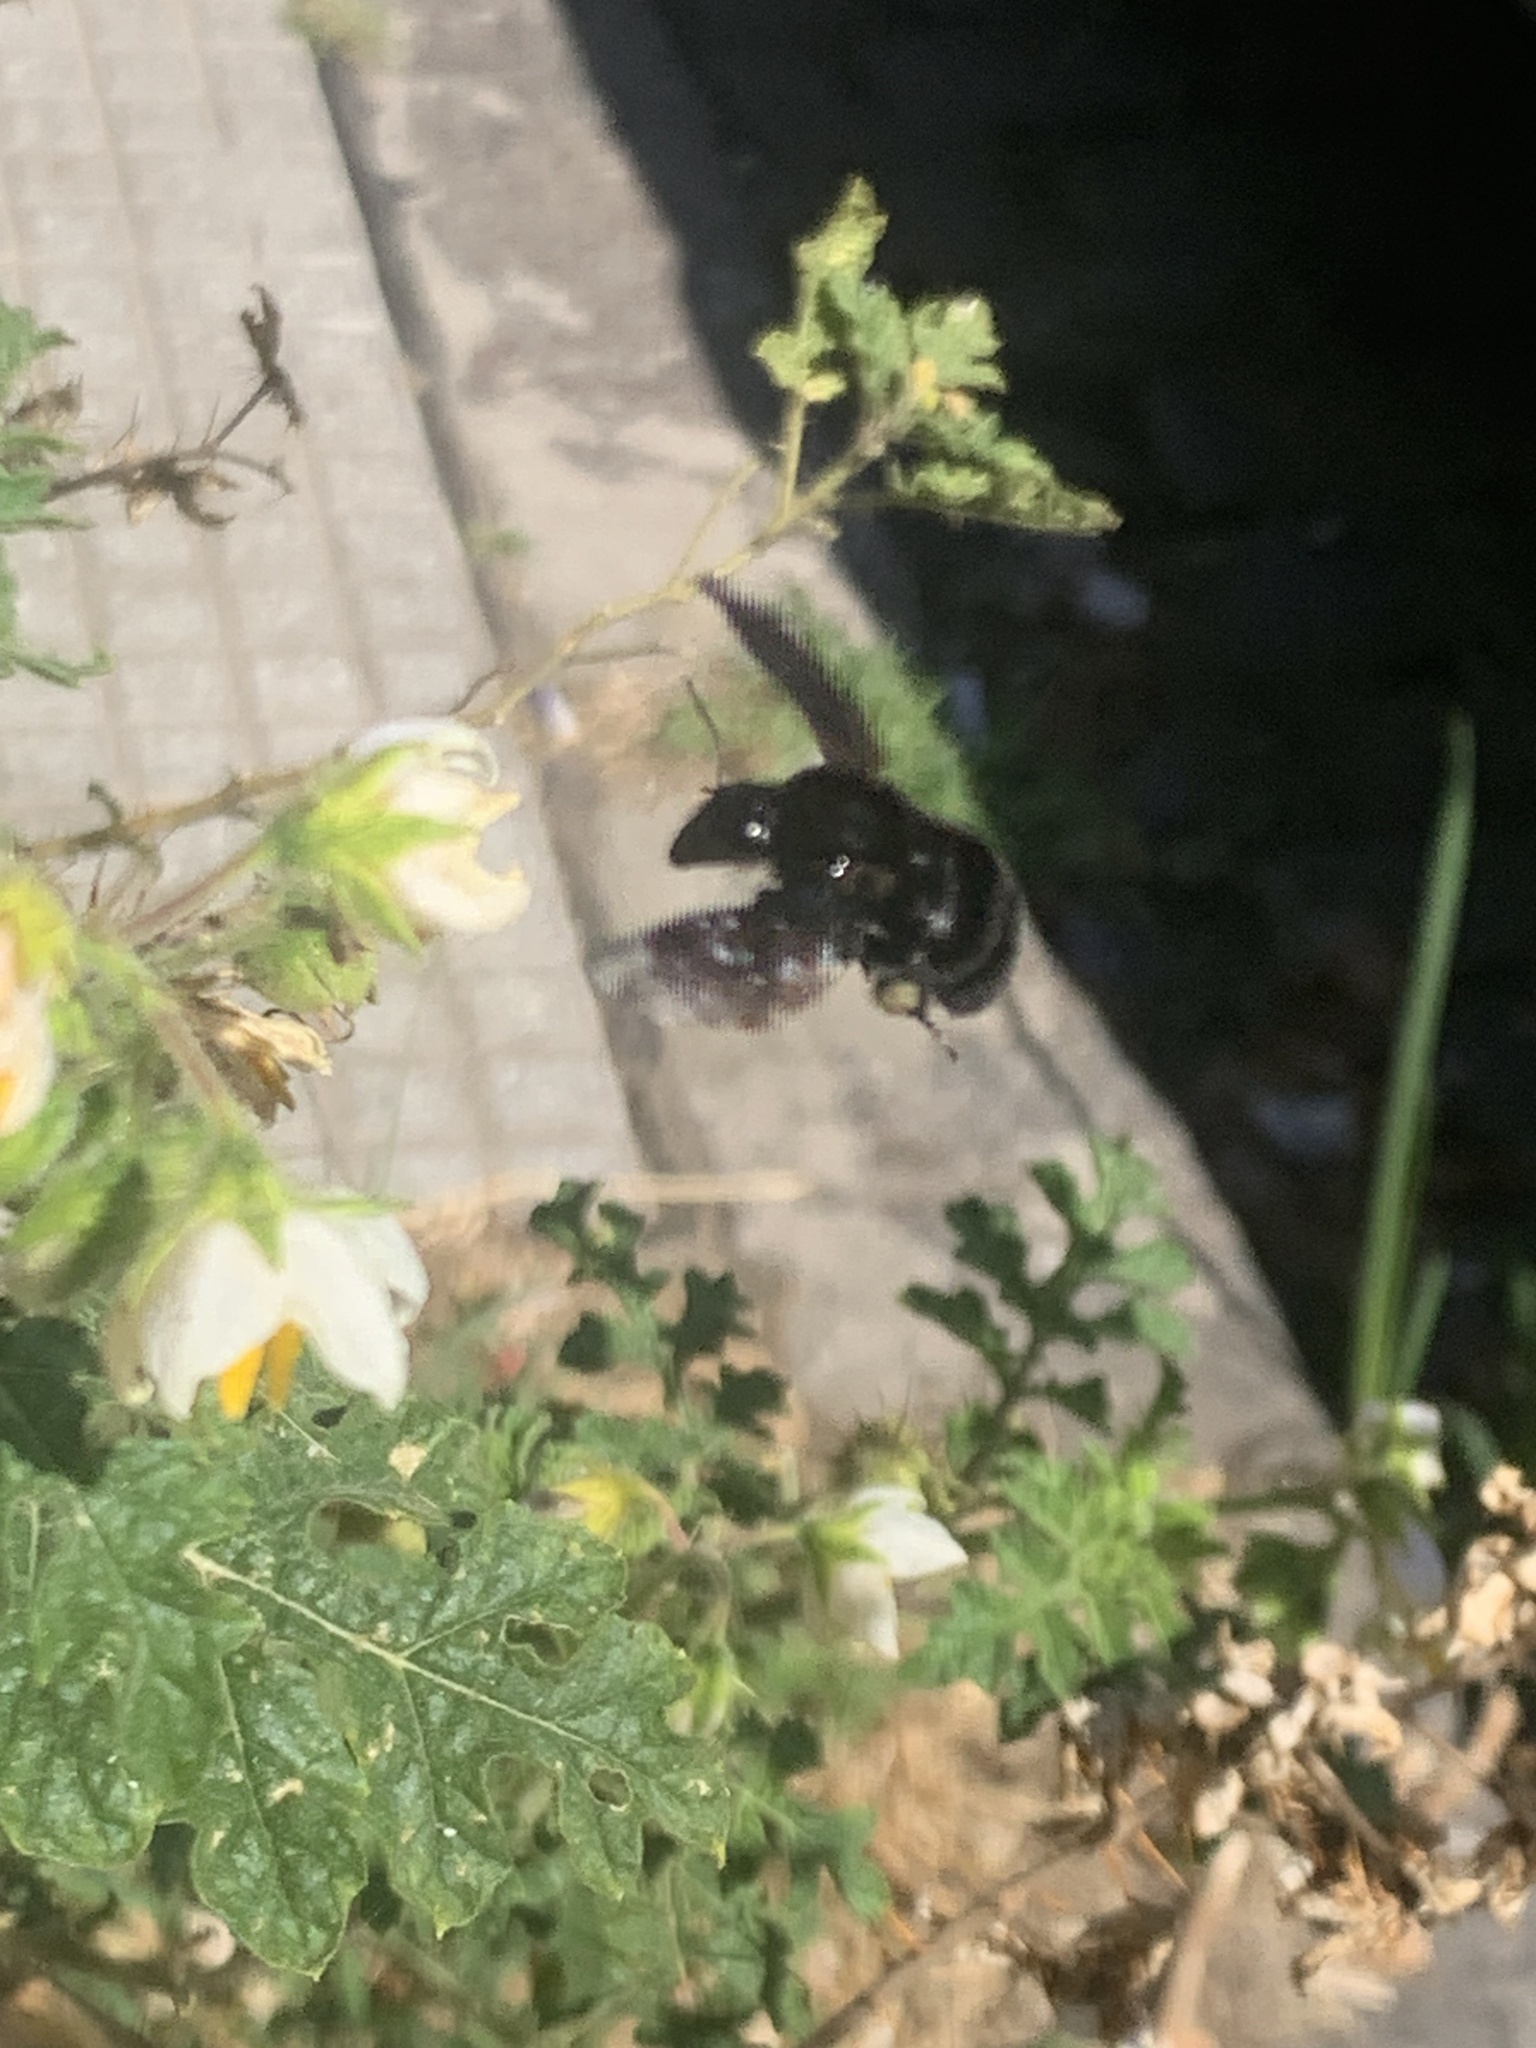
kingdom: Animalia
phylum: Arthropoda
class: Insecta
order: Hymenoptera
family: Apidae
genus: Bombus
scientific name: Bombus pauloensis
